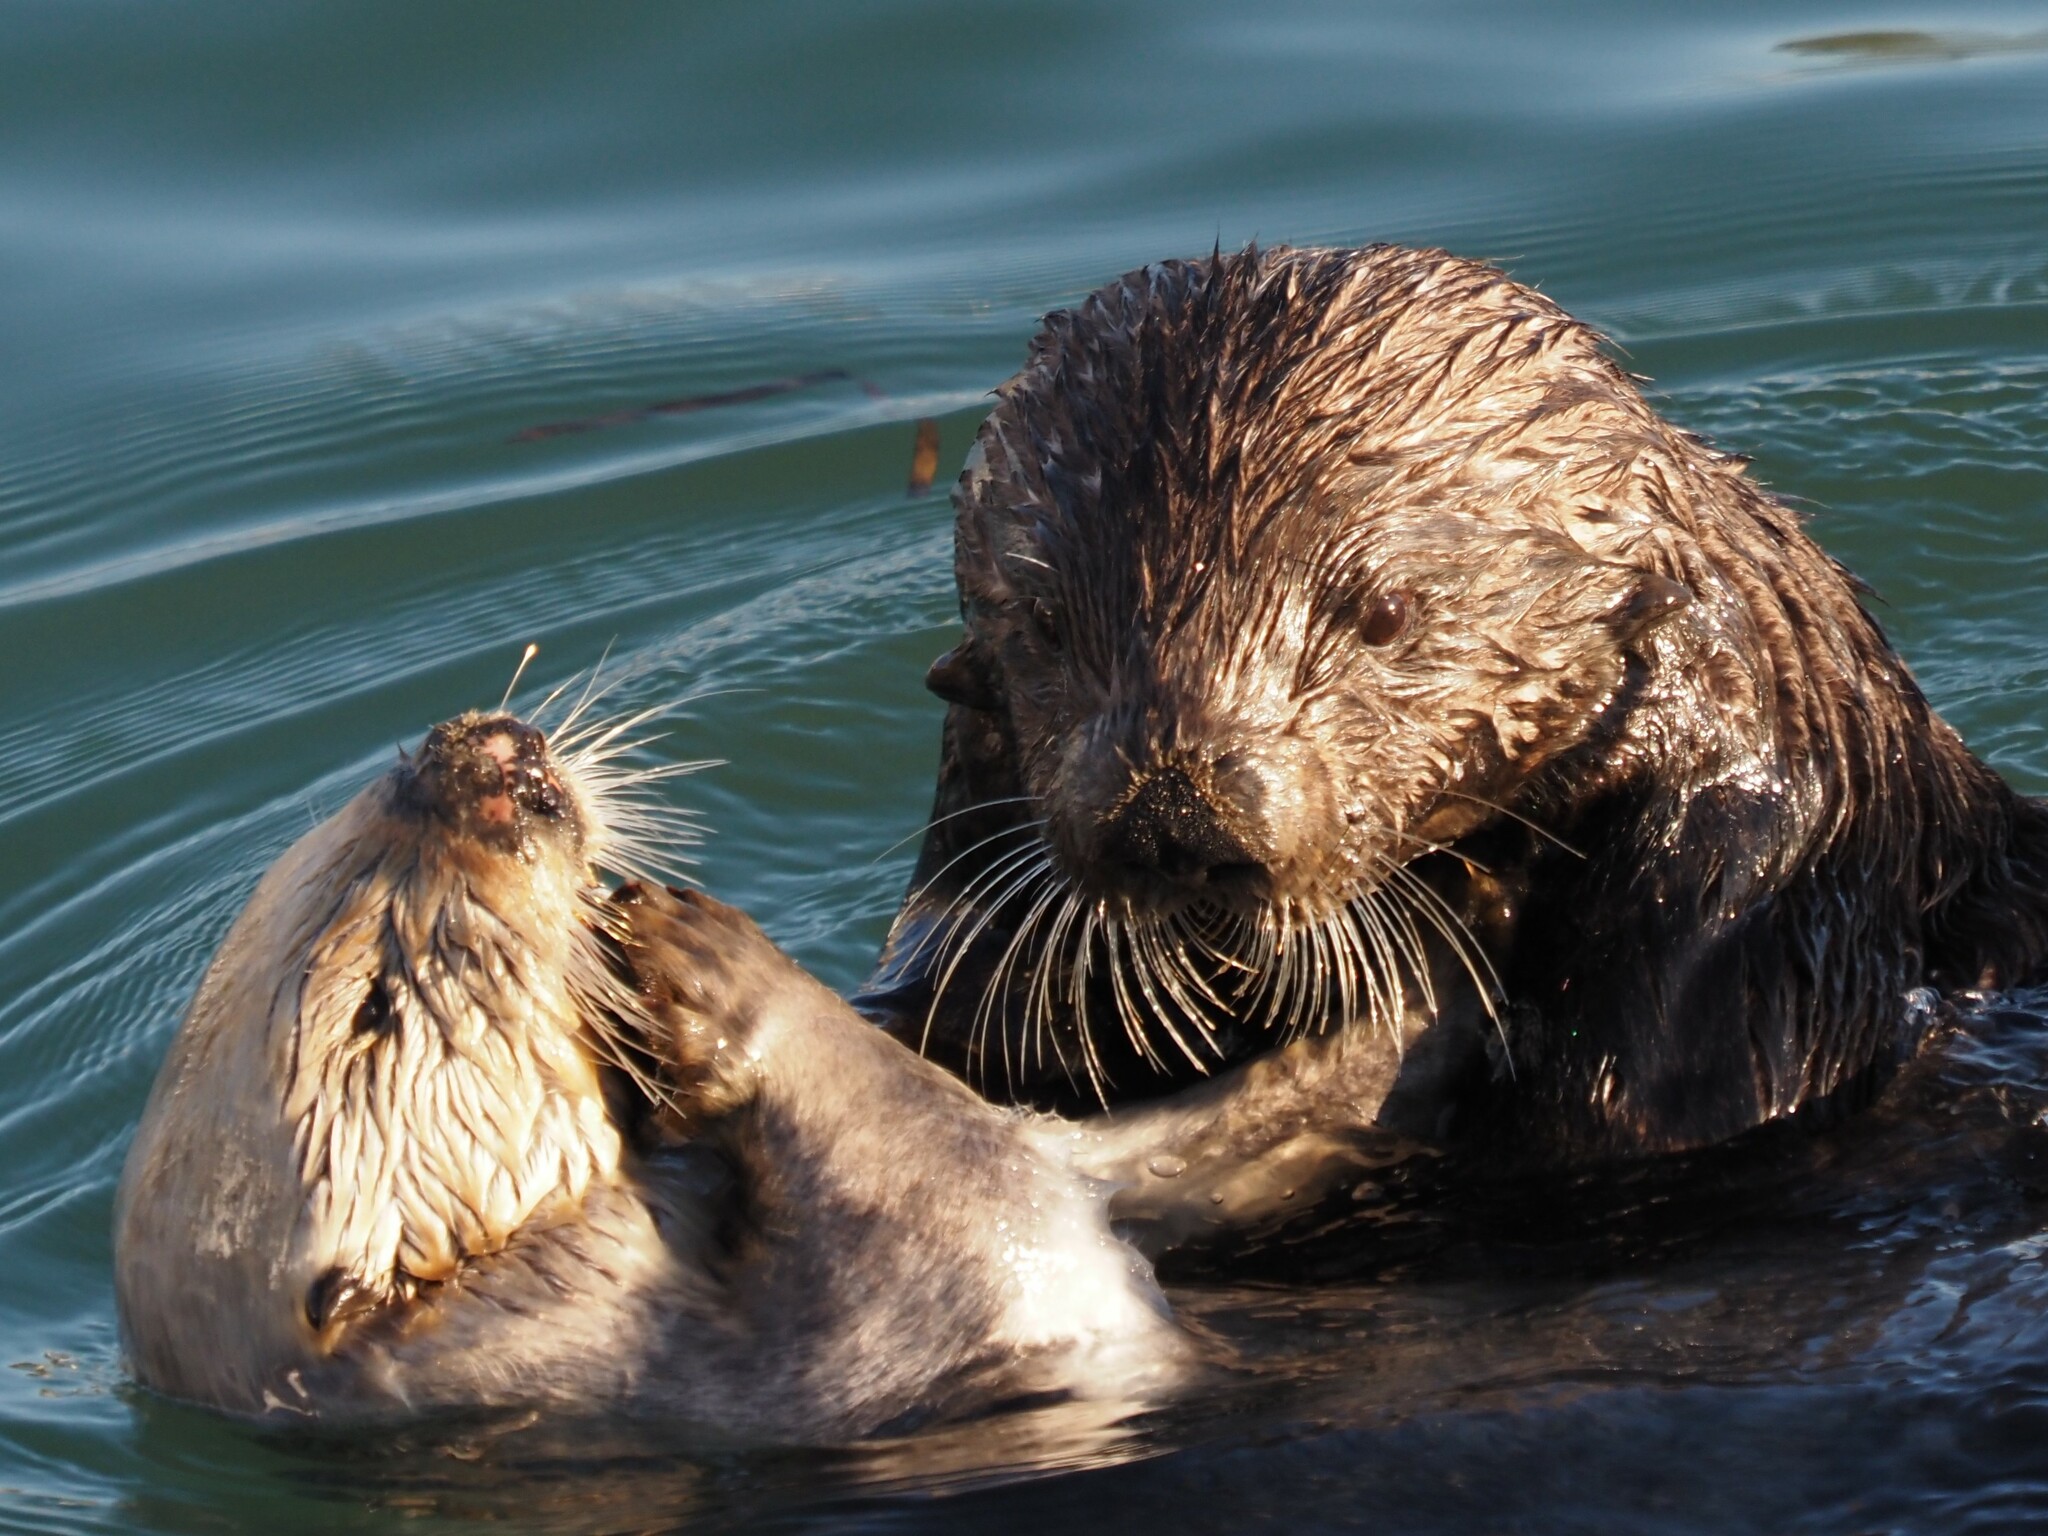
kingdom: Animalia
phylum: Chordata
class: Mammalia
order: Carnivora
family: Mustelidae
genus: Enhydra
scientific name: Enhydra lutris
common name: Sea otter
